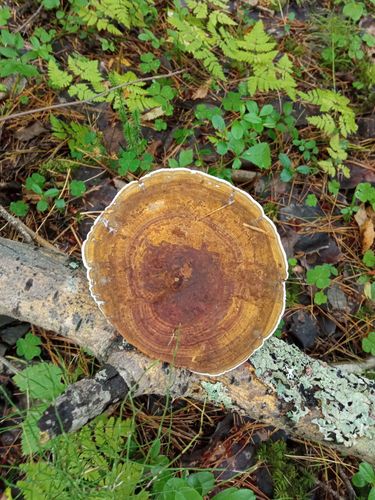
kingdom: Fungi
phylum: Basidiomycota
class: Agaricomycetes
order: Polyporales
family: Polyporaceae
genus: Daedaleopsis
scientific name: Daedaleopsis confragosa
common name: Blushing bracket
